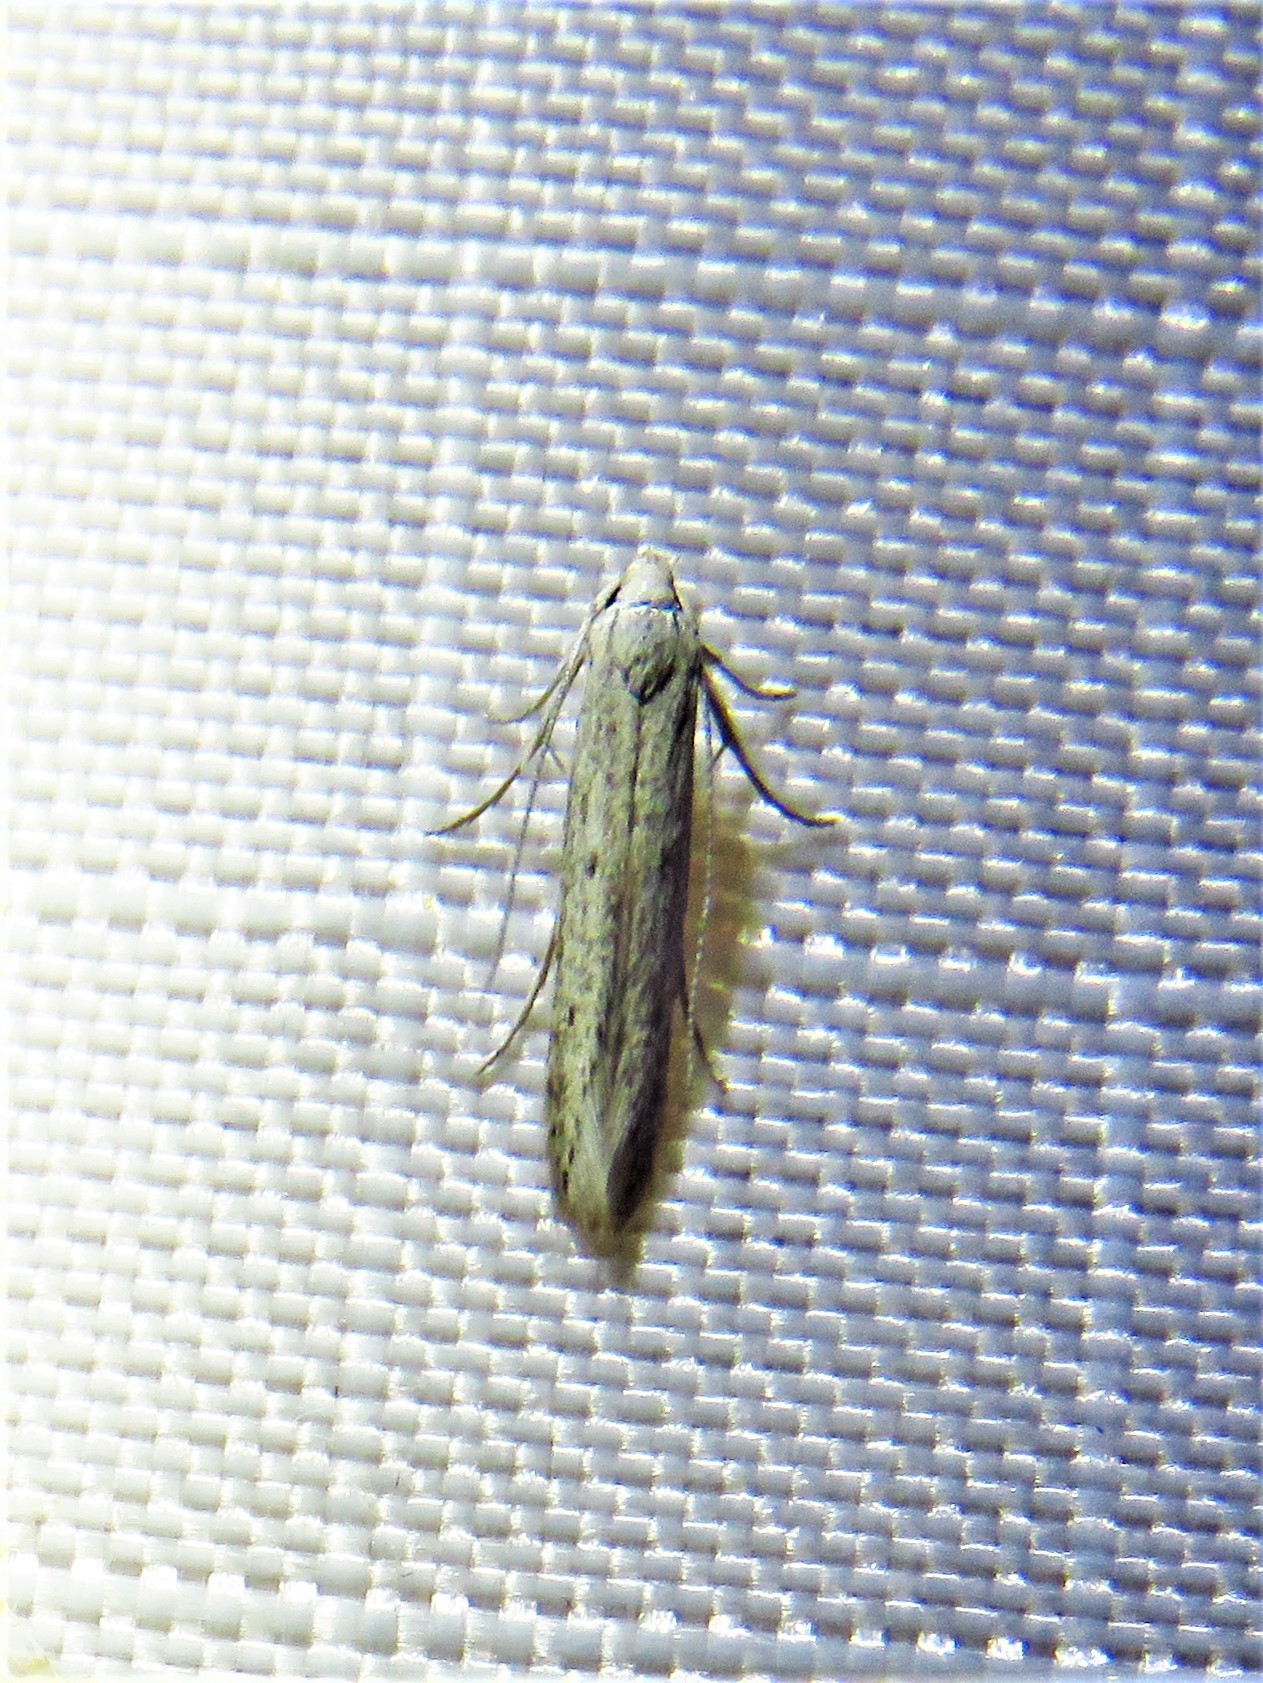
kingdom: Animalia
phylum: Arthropoda
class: Insecta
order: Lepidoptera
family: Elachistidae
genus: Haplochrois
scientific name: Haplochrois bipunctella
